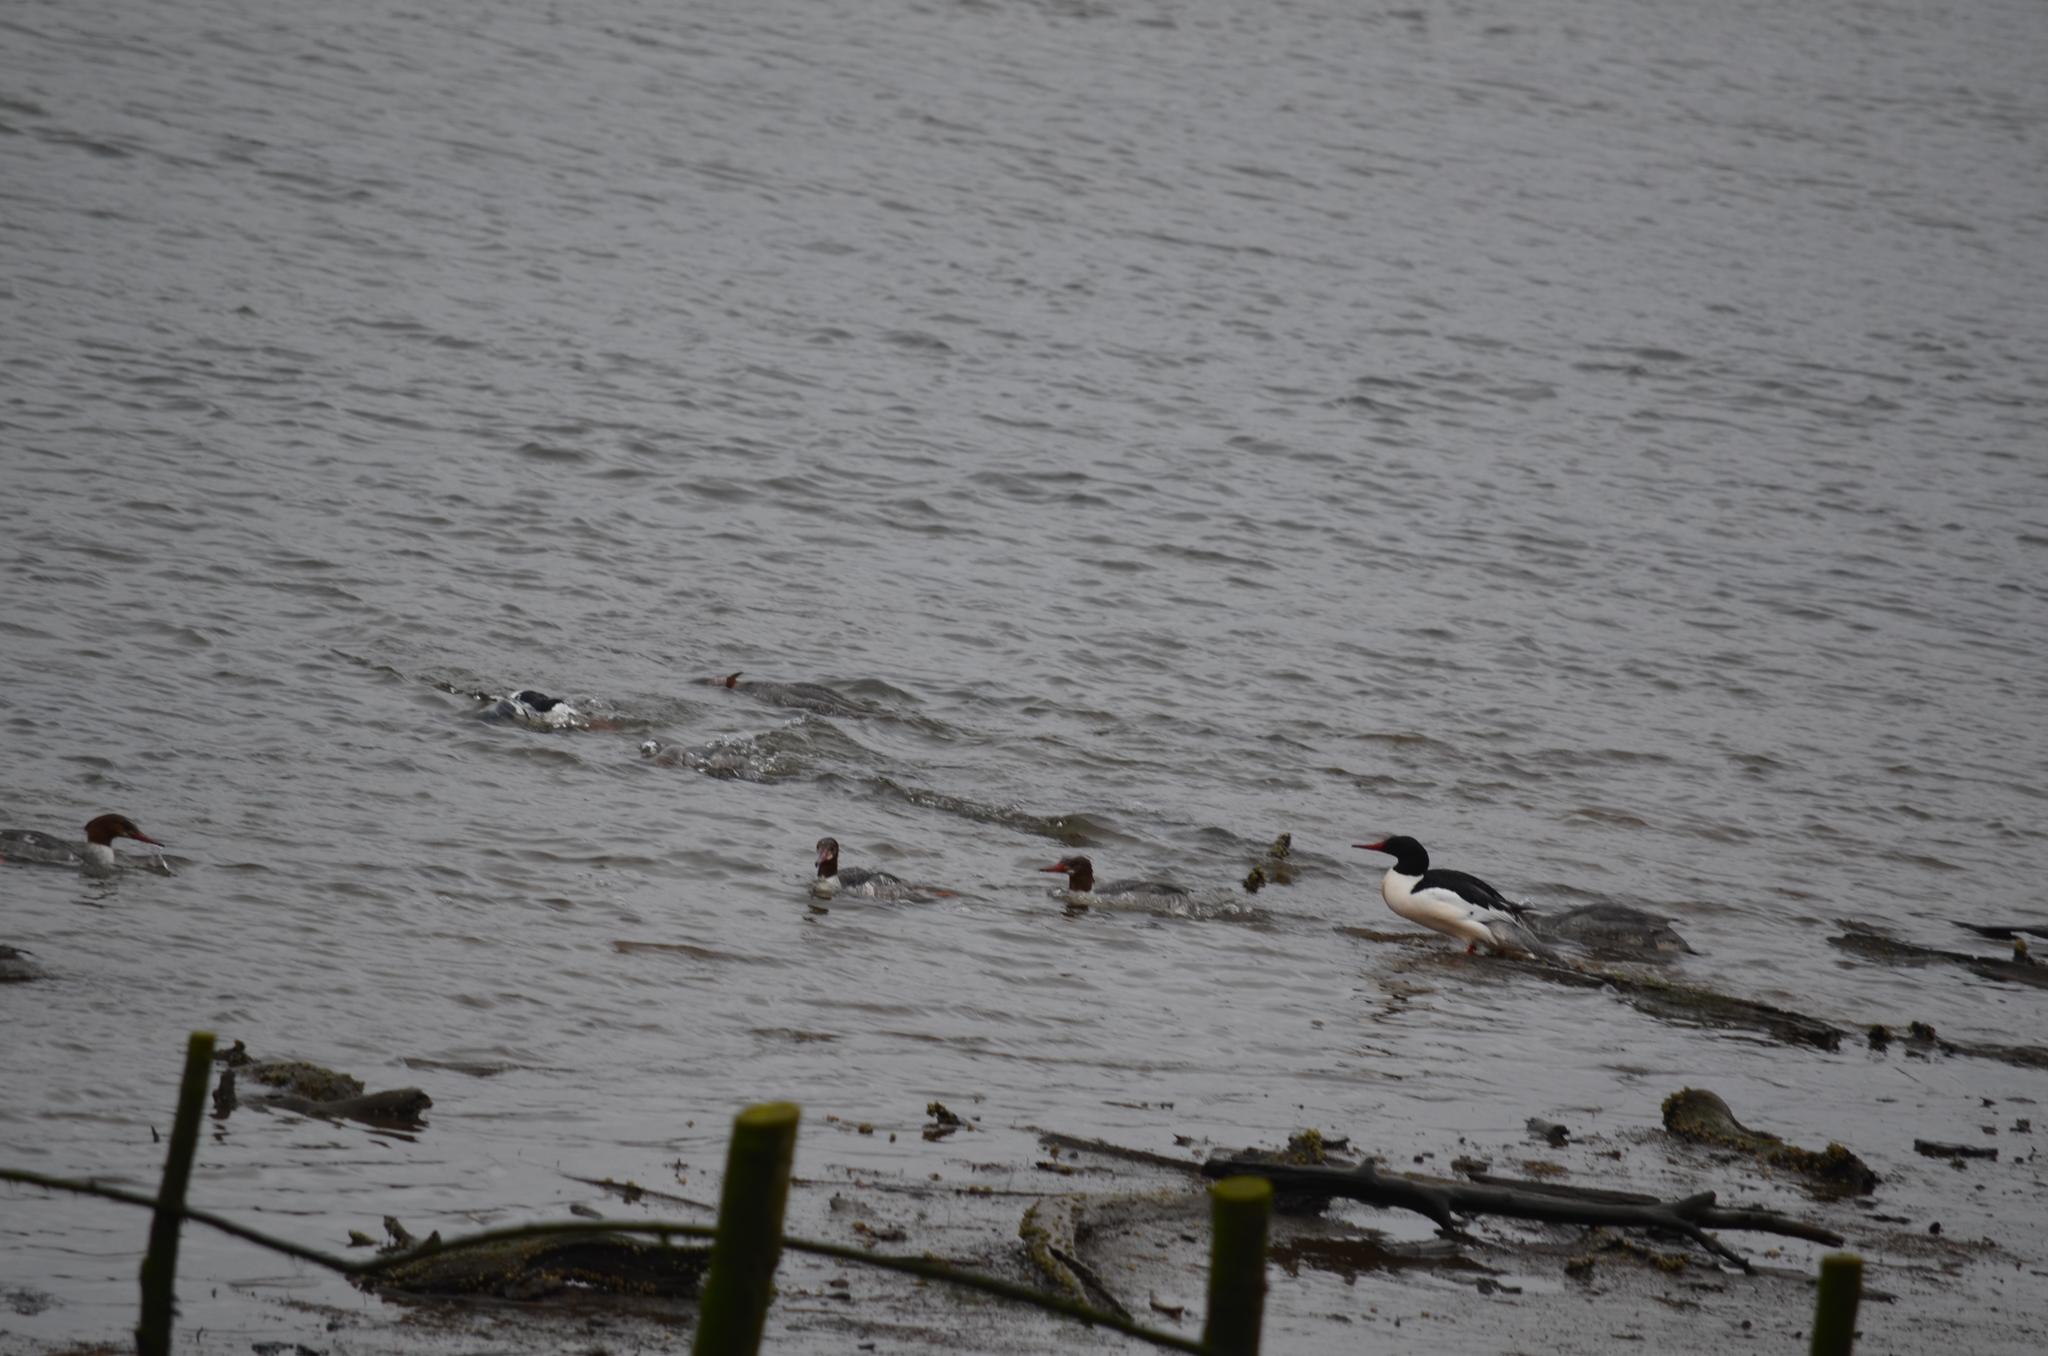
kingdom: Animalia
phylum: Chordata
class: Aves
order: Anseriformes
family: Anatidae
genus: Mergus
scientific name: Mergus merganser
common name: Common merganser
